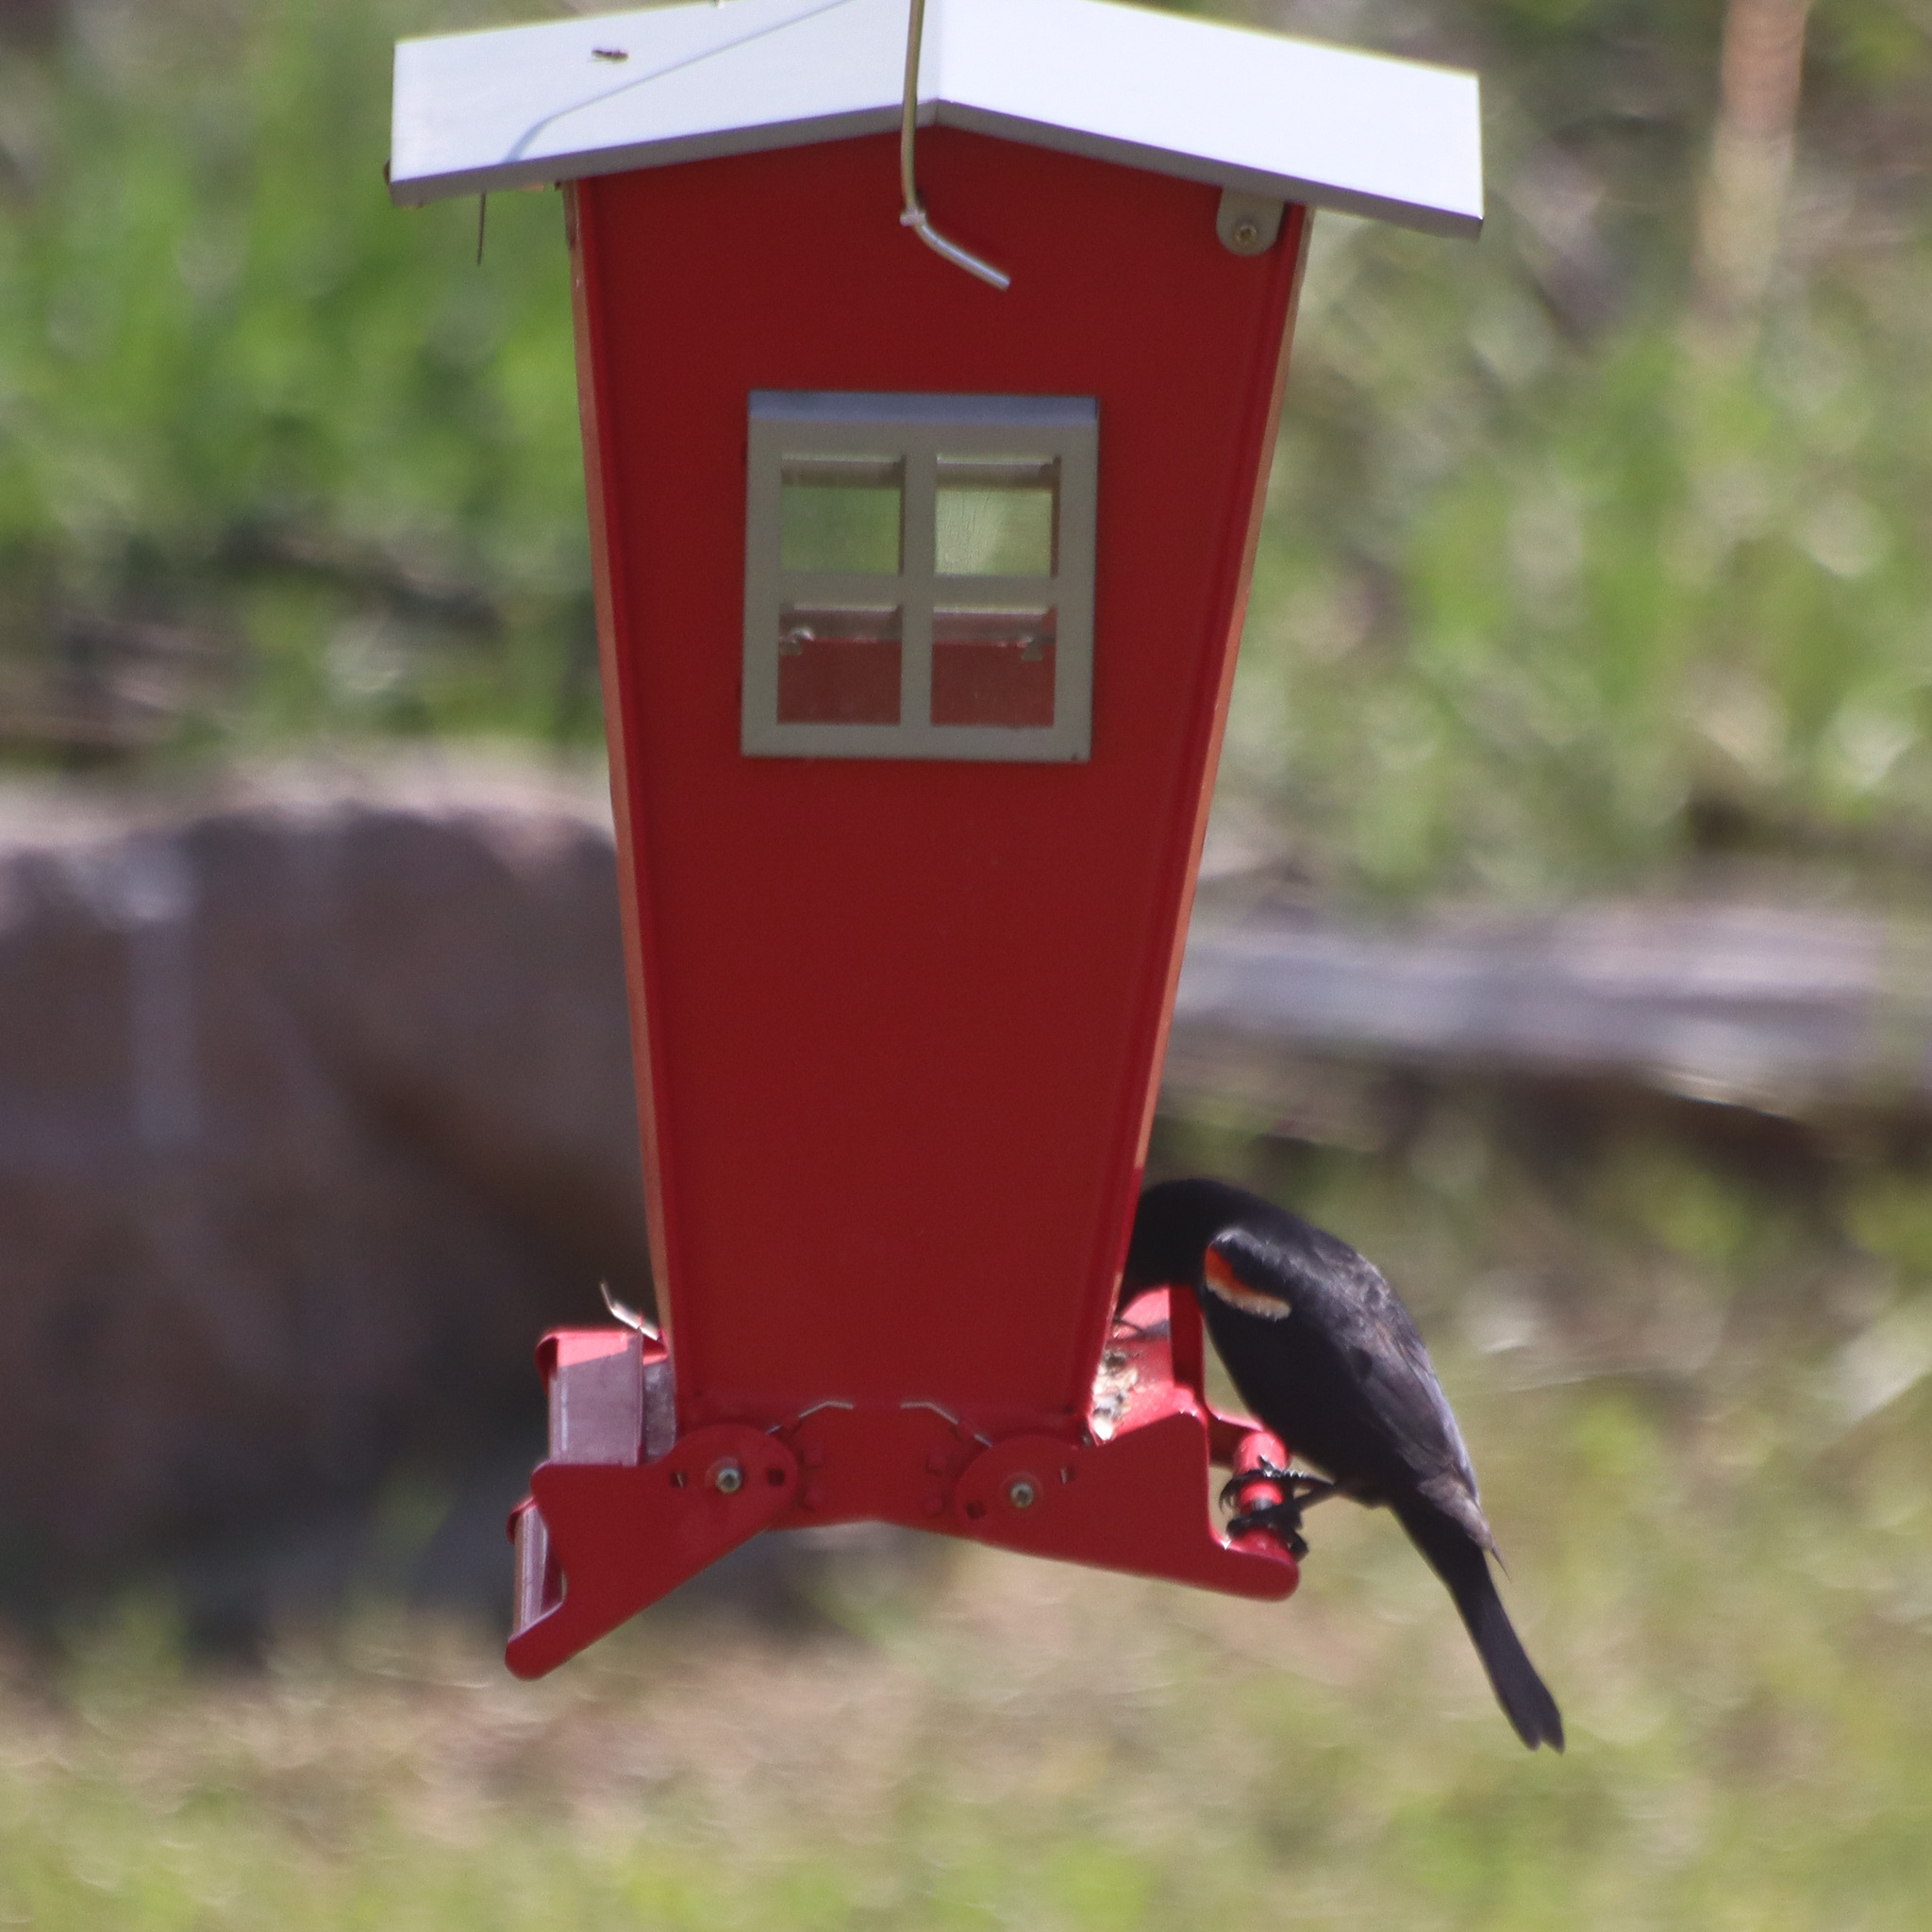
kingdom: Animalia
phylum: Chordata
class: Aves
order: Passeriformes
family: Icteridae
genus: Agelaius
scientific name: Agelaius phoeniceus
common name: Red-winged blackbird
